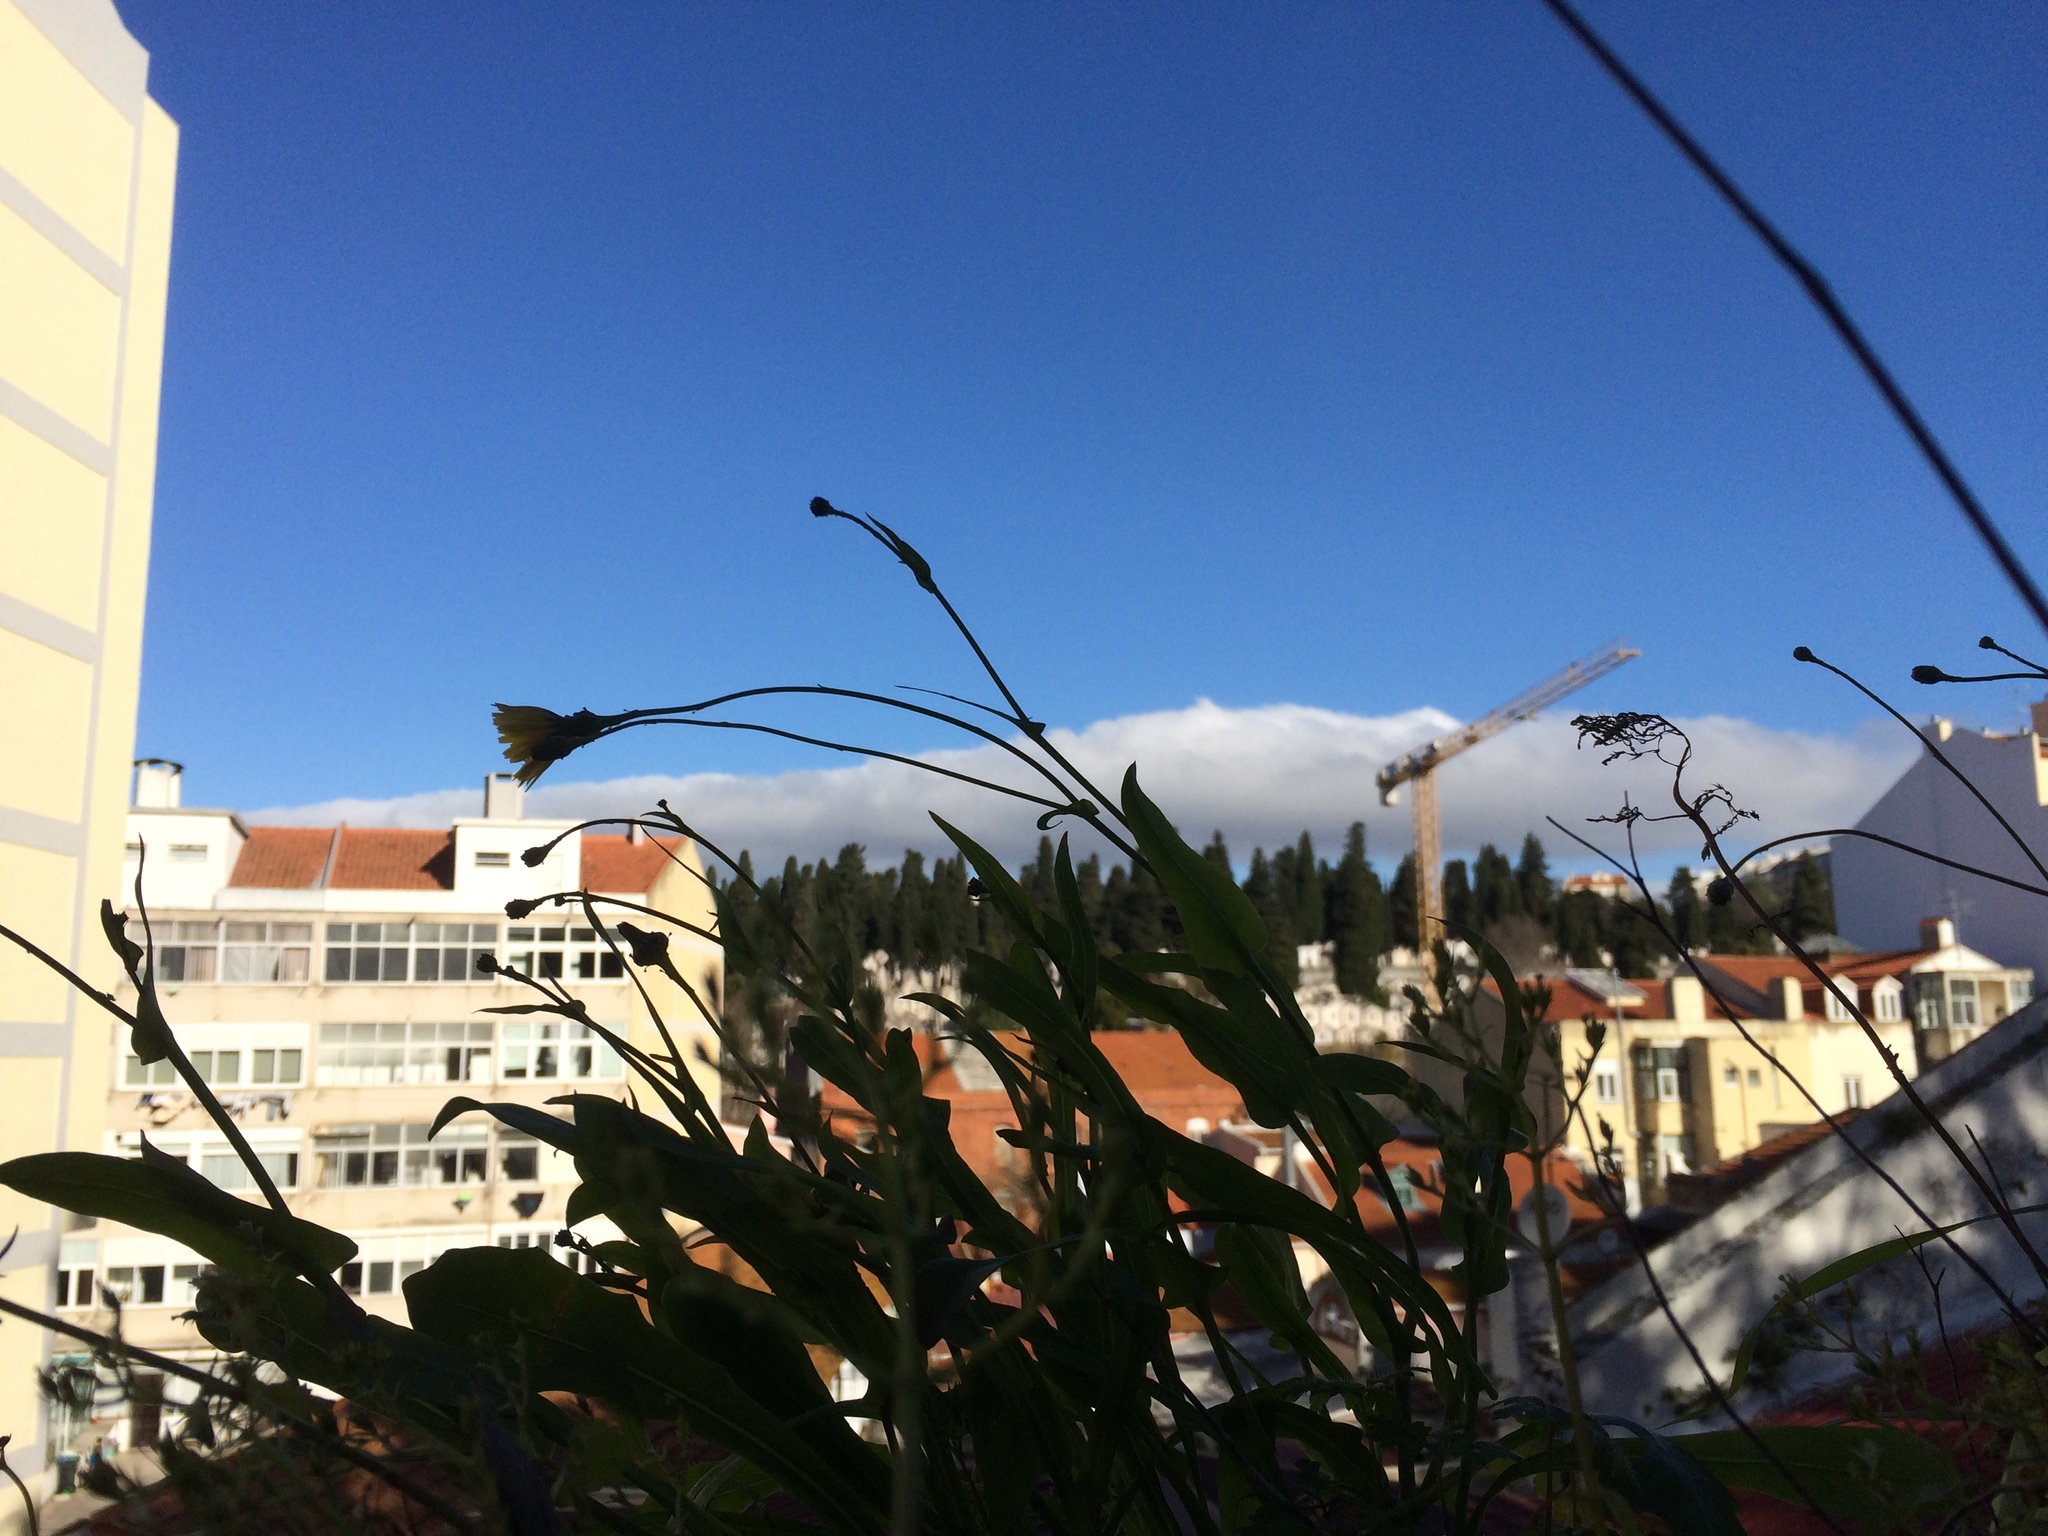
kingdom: Plantae
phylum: Tracheophyta
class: Magnoliopsida
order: Asterales
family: Asteraceae
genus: Reichardia
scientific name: Reichardia picroides
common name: Common brighteyes
